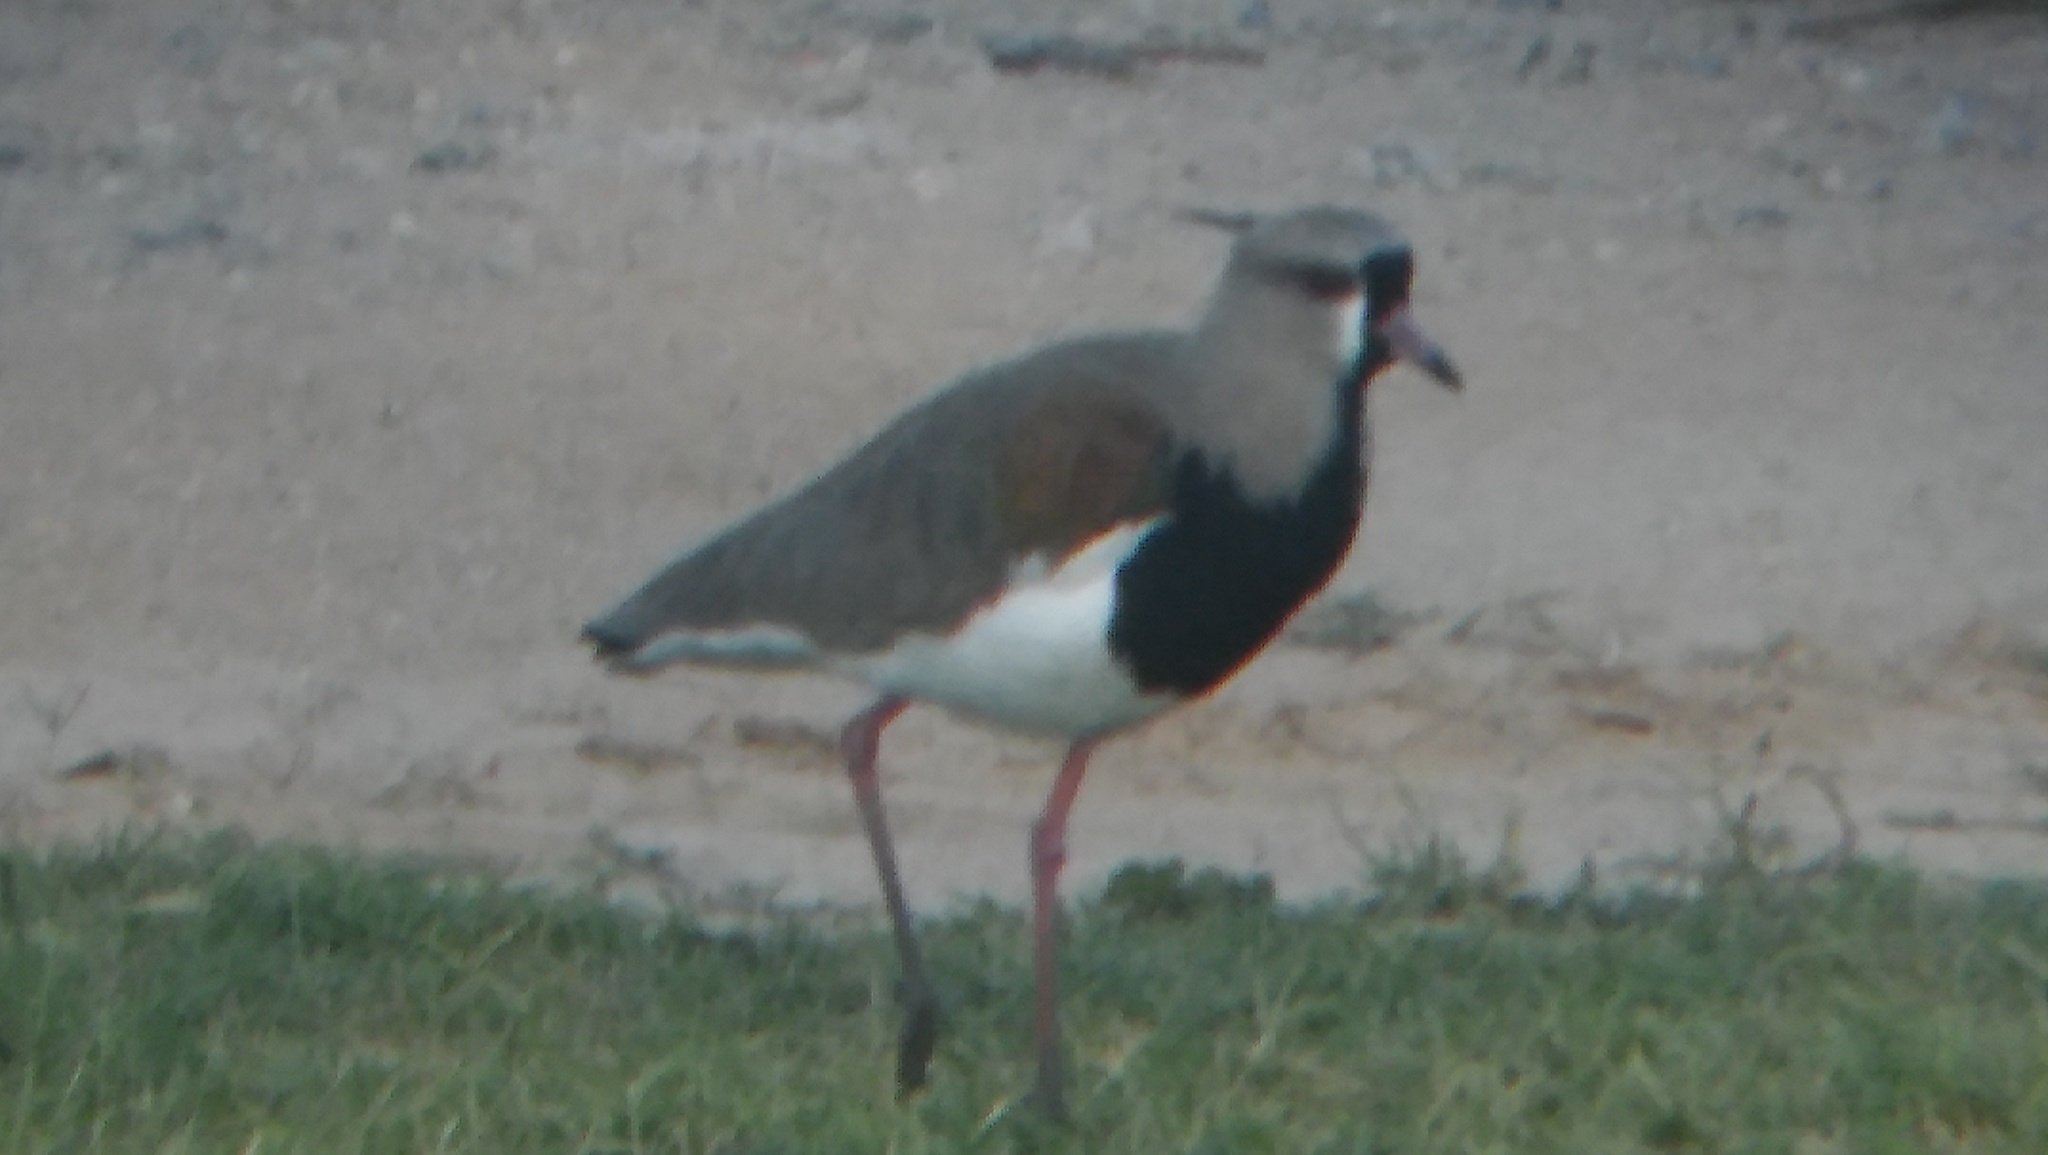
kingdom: Animalia
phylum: Chordata
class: Aves
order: Charadriiformes
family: Charadriidae
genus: Vanellus
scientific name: Vanellus chilensis
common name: Southern lapwing
